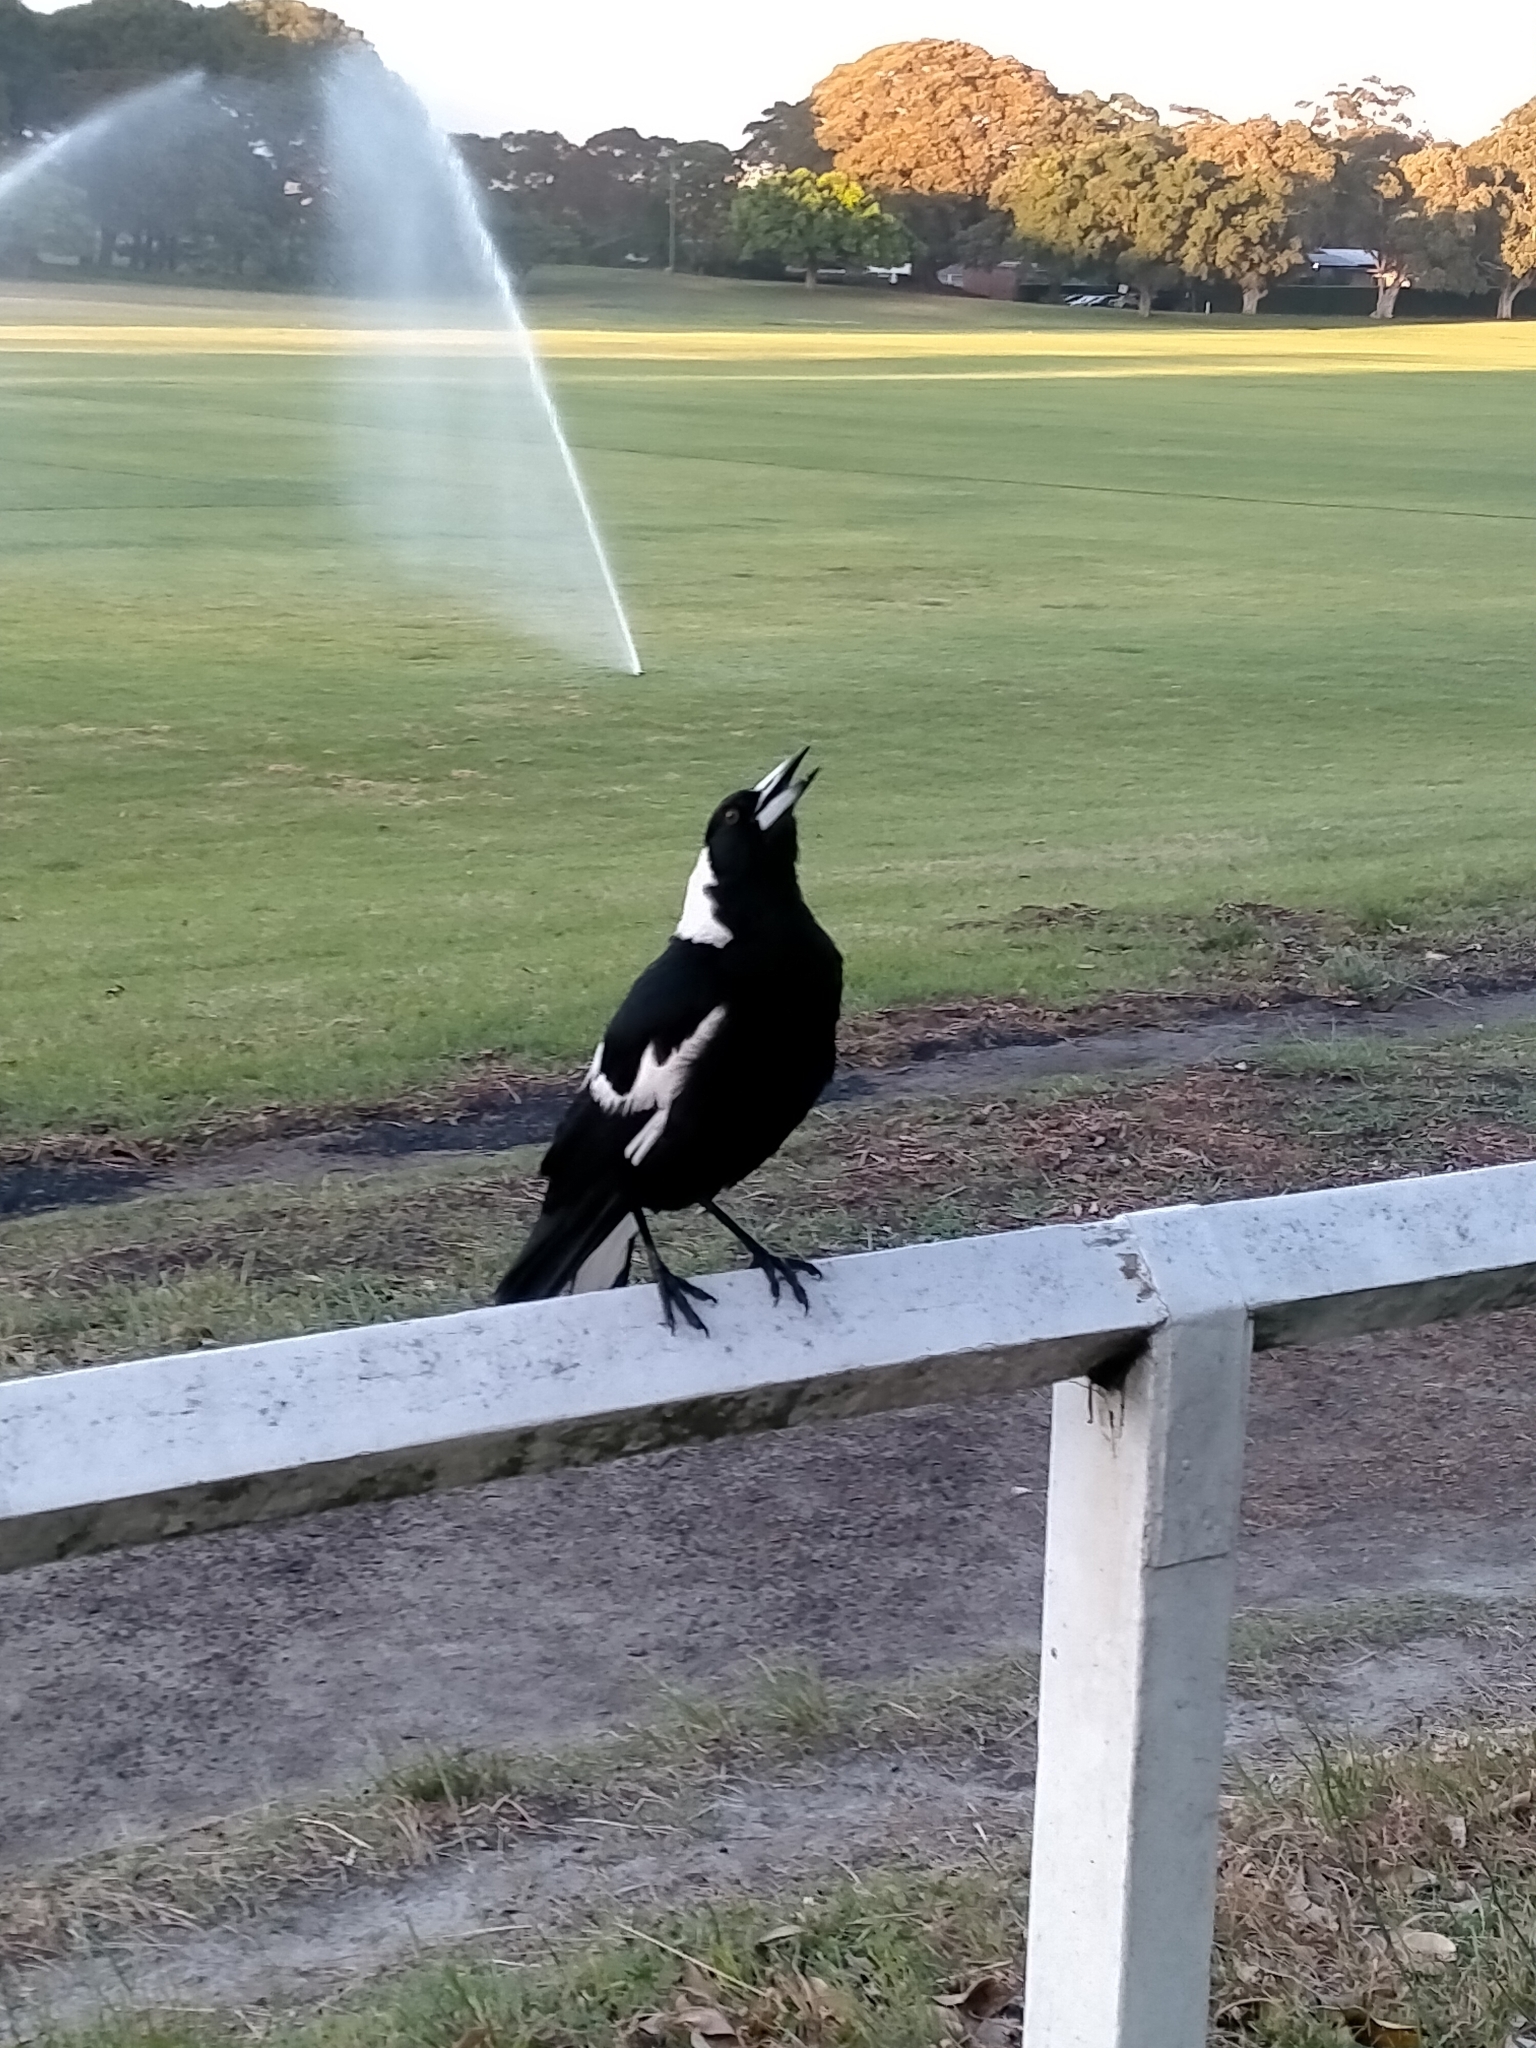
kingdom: Animalia
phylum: Chordata
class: Aves
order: Passeriformes
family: Cracticidae
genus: Gymnorhina
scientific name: Gymnorhina tibicen
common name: Australian magpie
